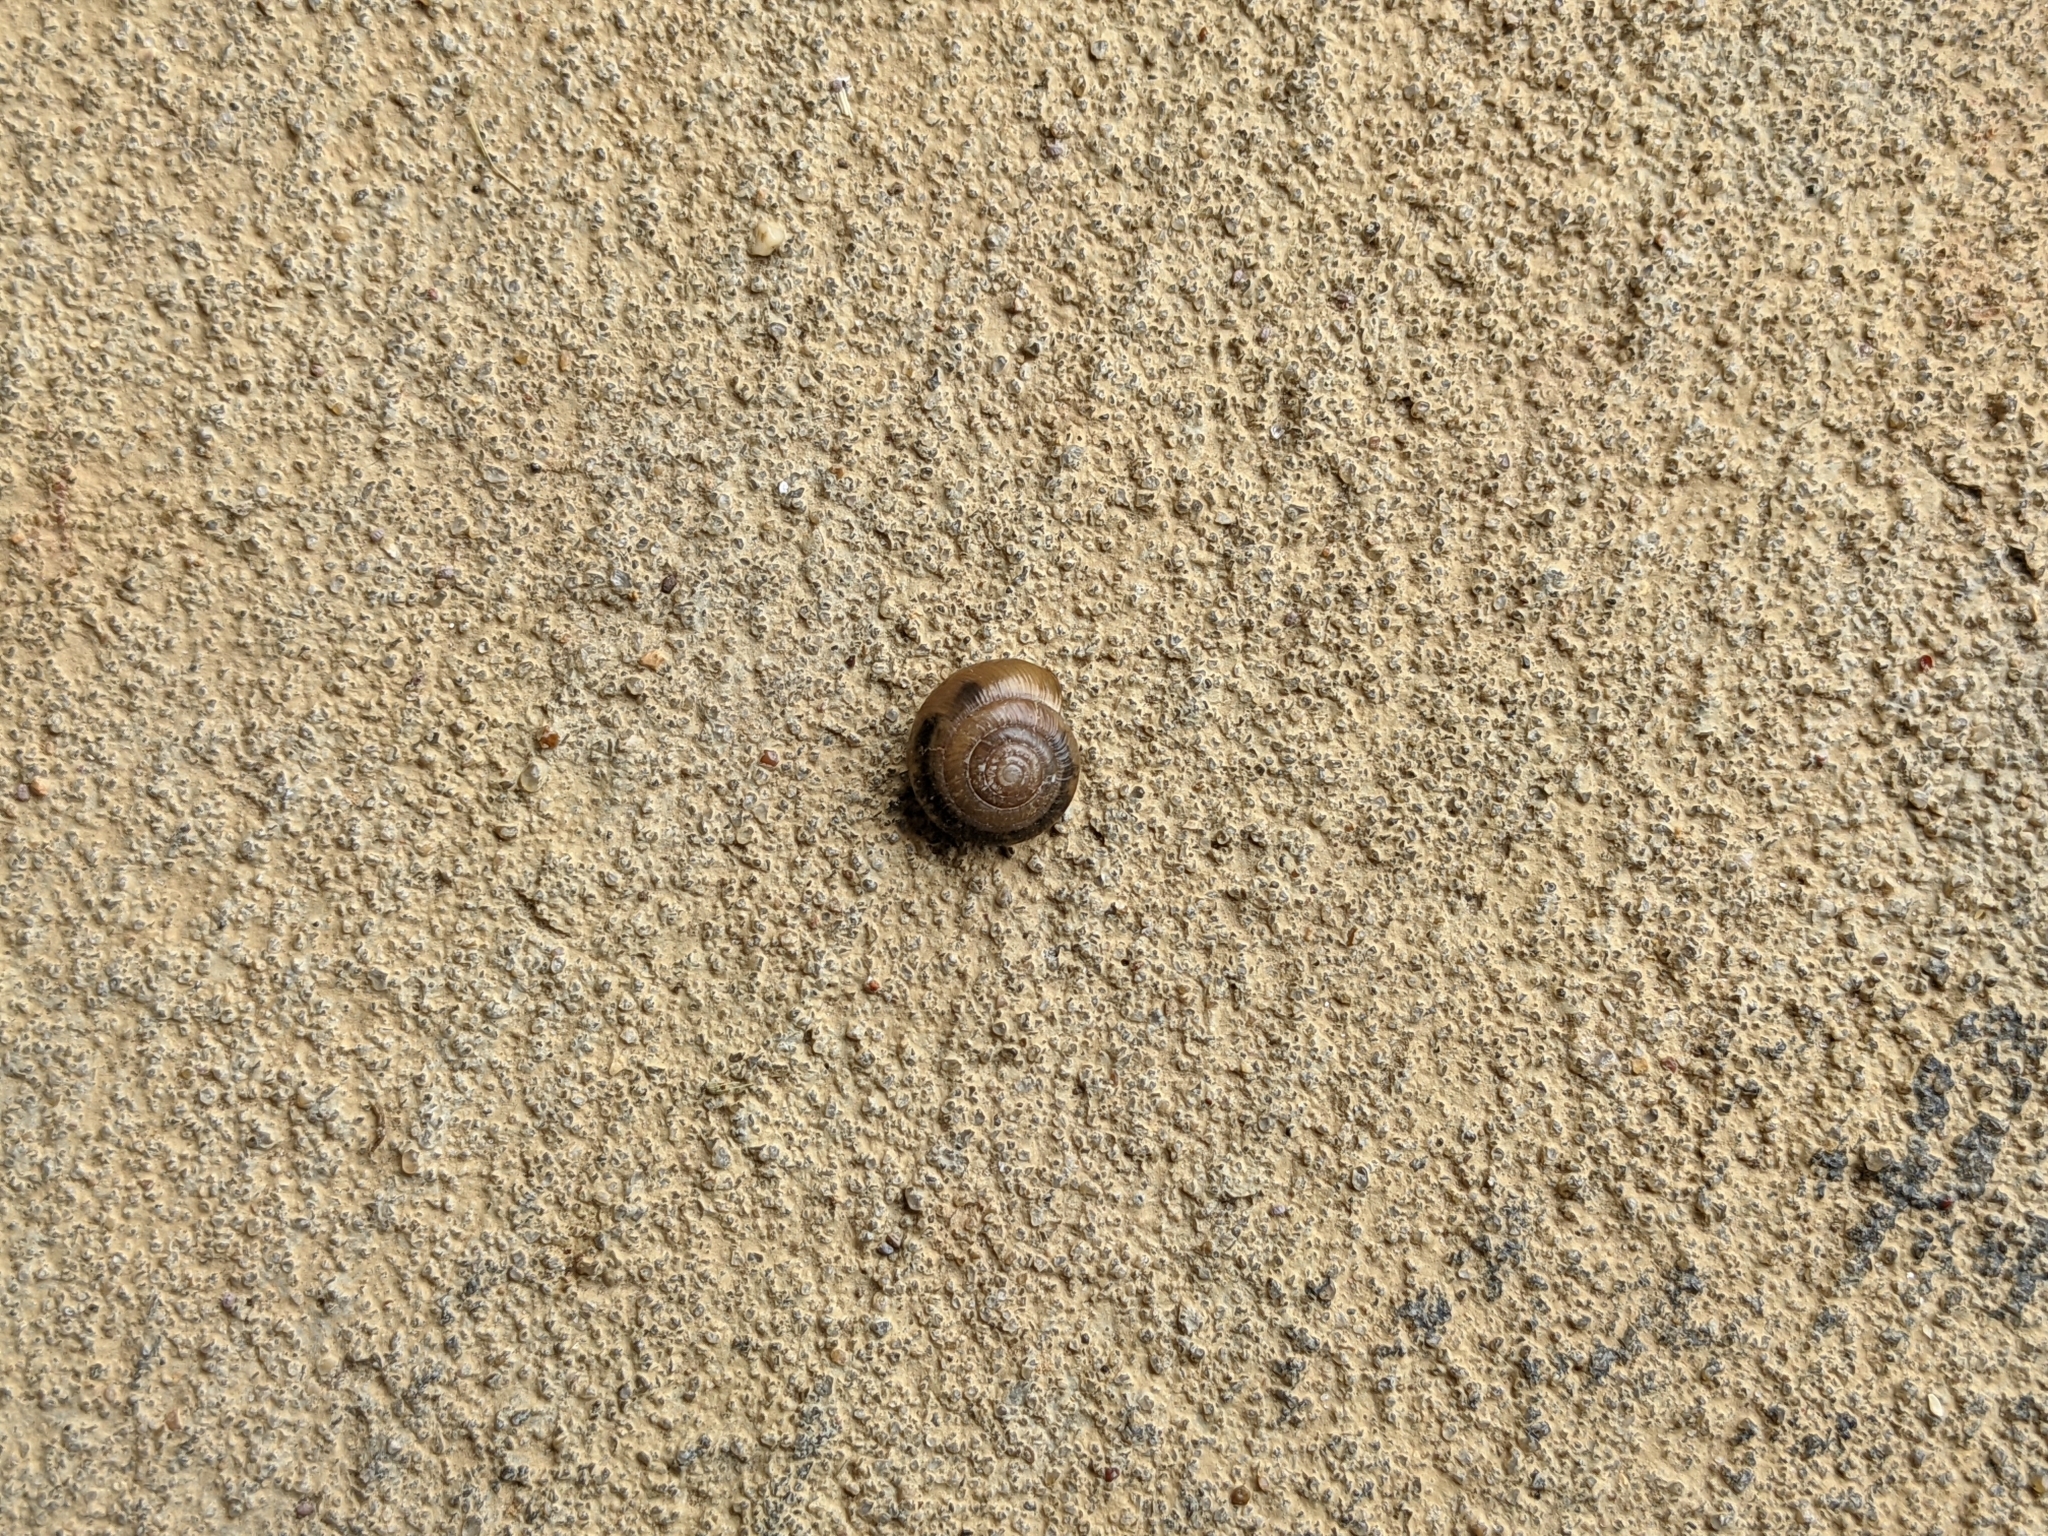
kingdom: Animalia
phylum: Mollusca
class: Gastropoda
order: Stylommatophora
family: Oxychilidae
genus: Oxychilus
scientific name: Oxychilus draparnaudi
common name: Draparnaud's glass snail
